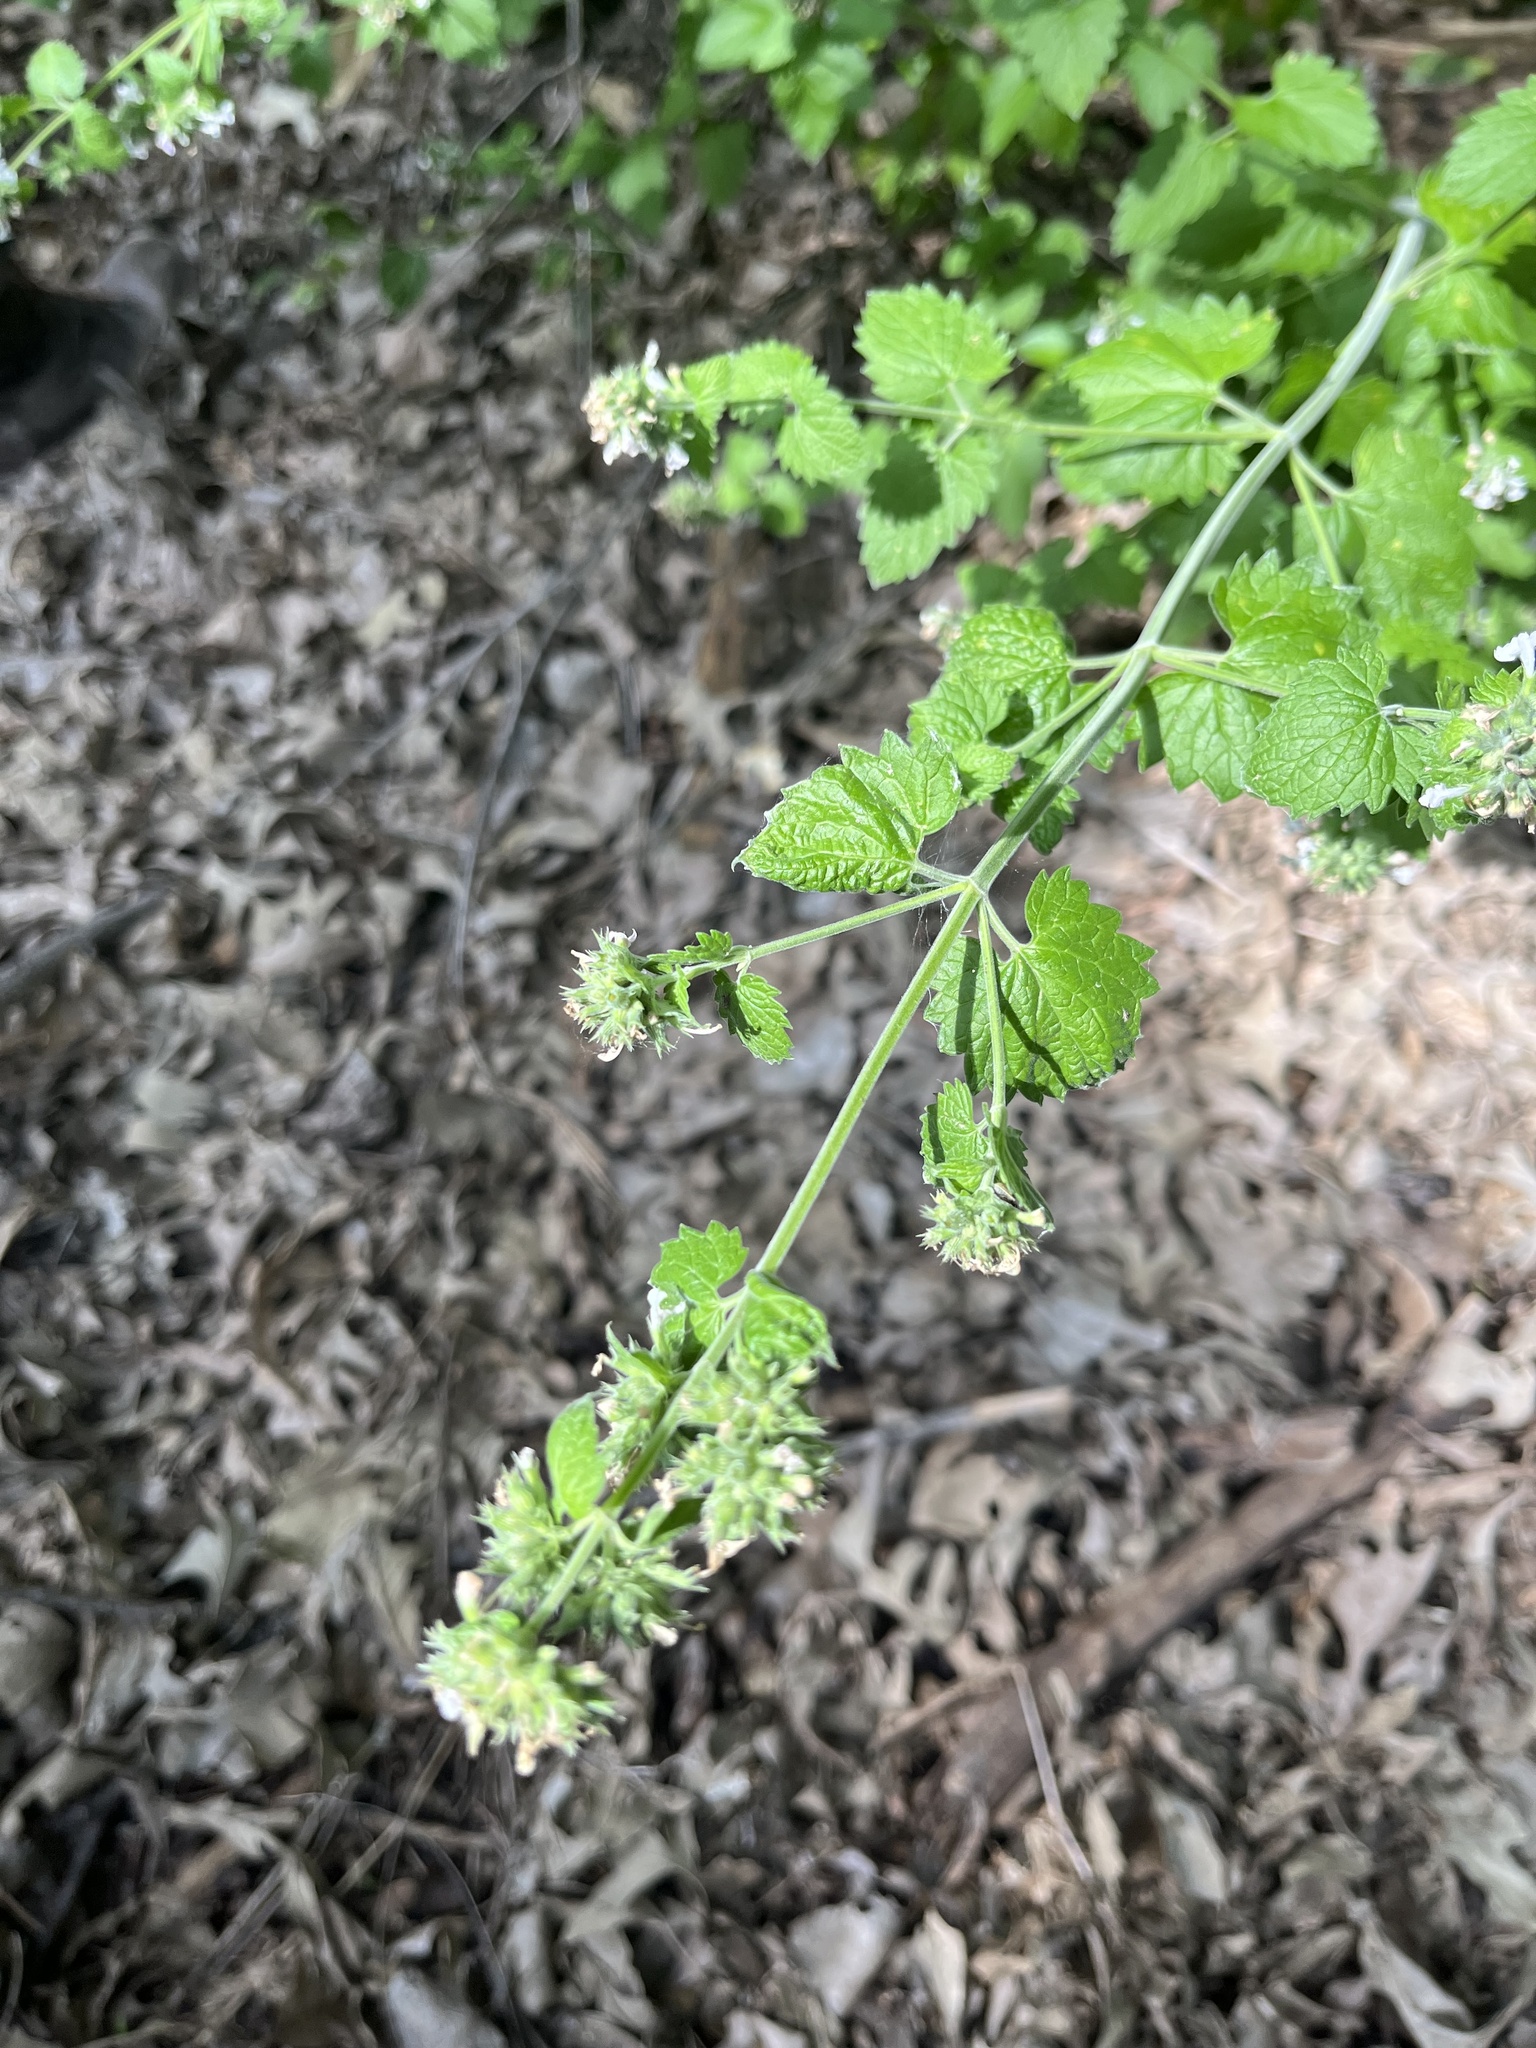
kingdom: Plantae
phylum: Tracheophyta
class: Magnoliopsida
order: Lamiales
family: Lamiaceae
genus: Nepeta
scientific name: Nepeta cataria
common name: Catnip
